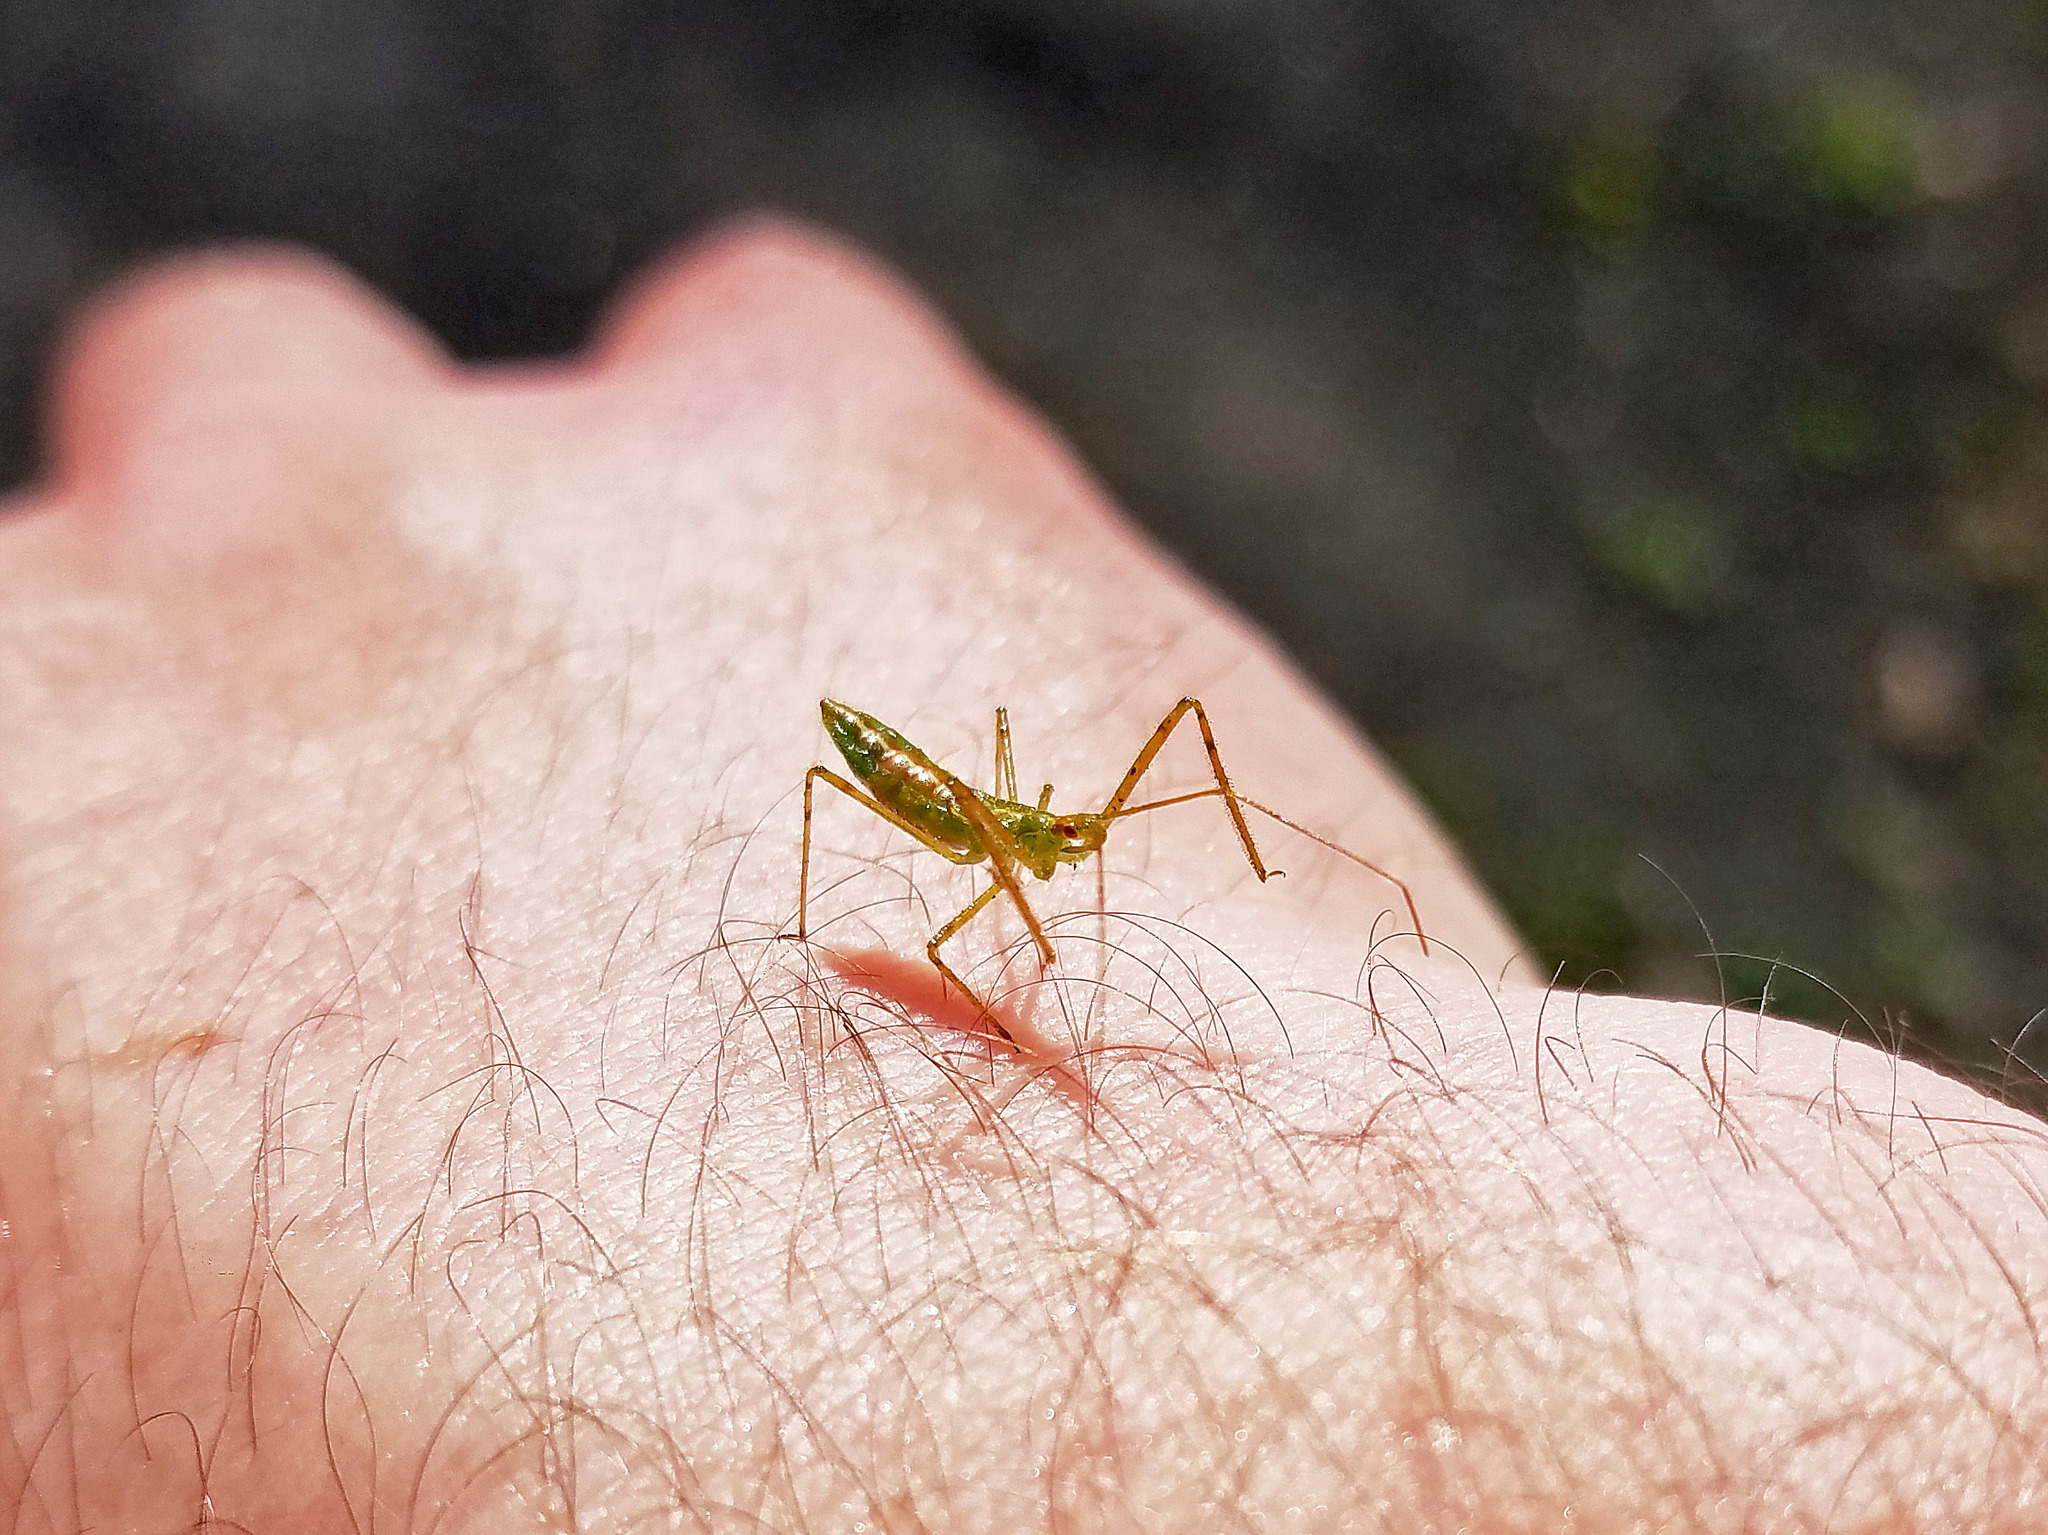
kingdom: Animalia
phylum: Arthropoda
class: Insecta
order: Hemiptera
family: Reduviidae
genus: Zelus
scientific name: Zelus luridus
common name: Pale green assassin bug
